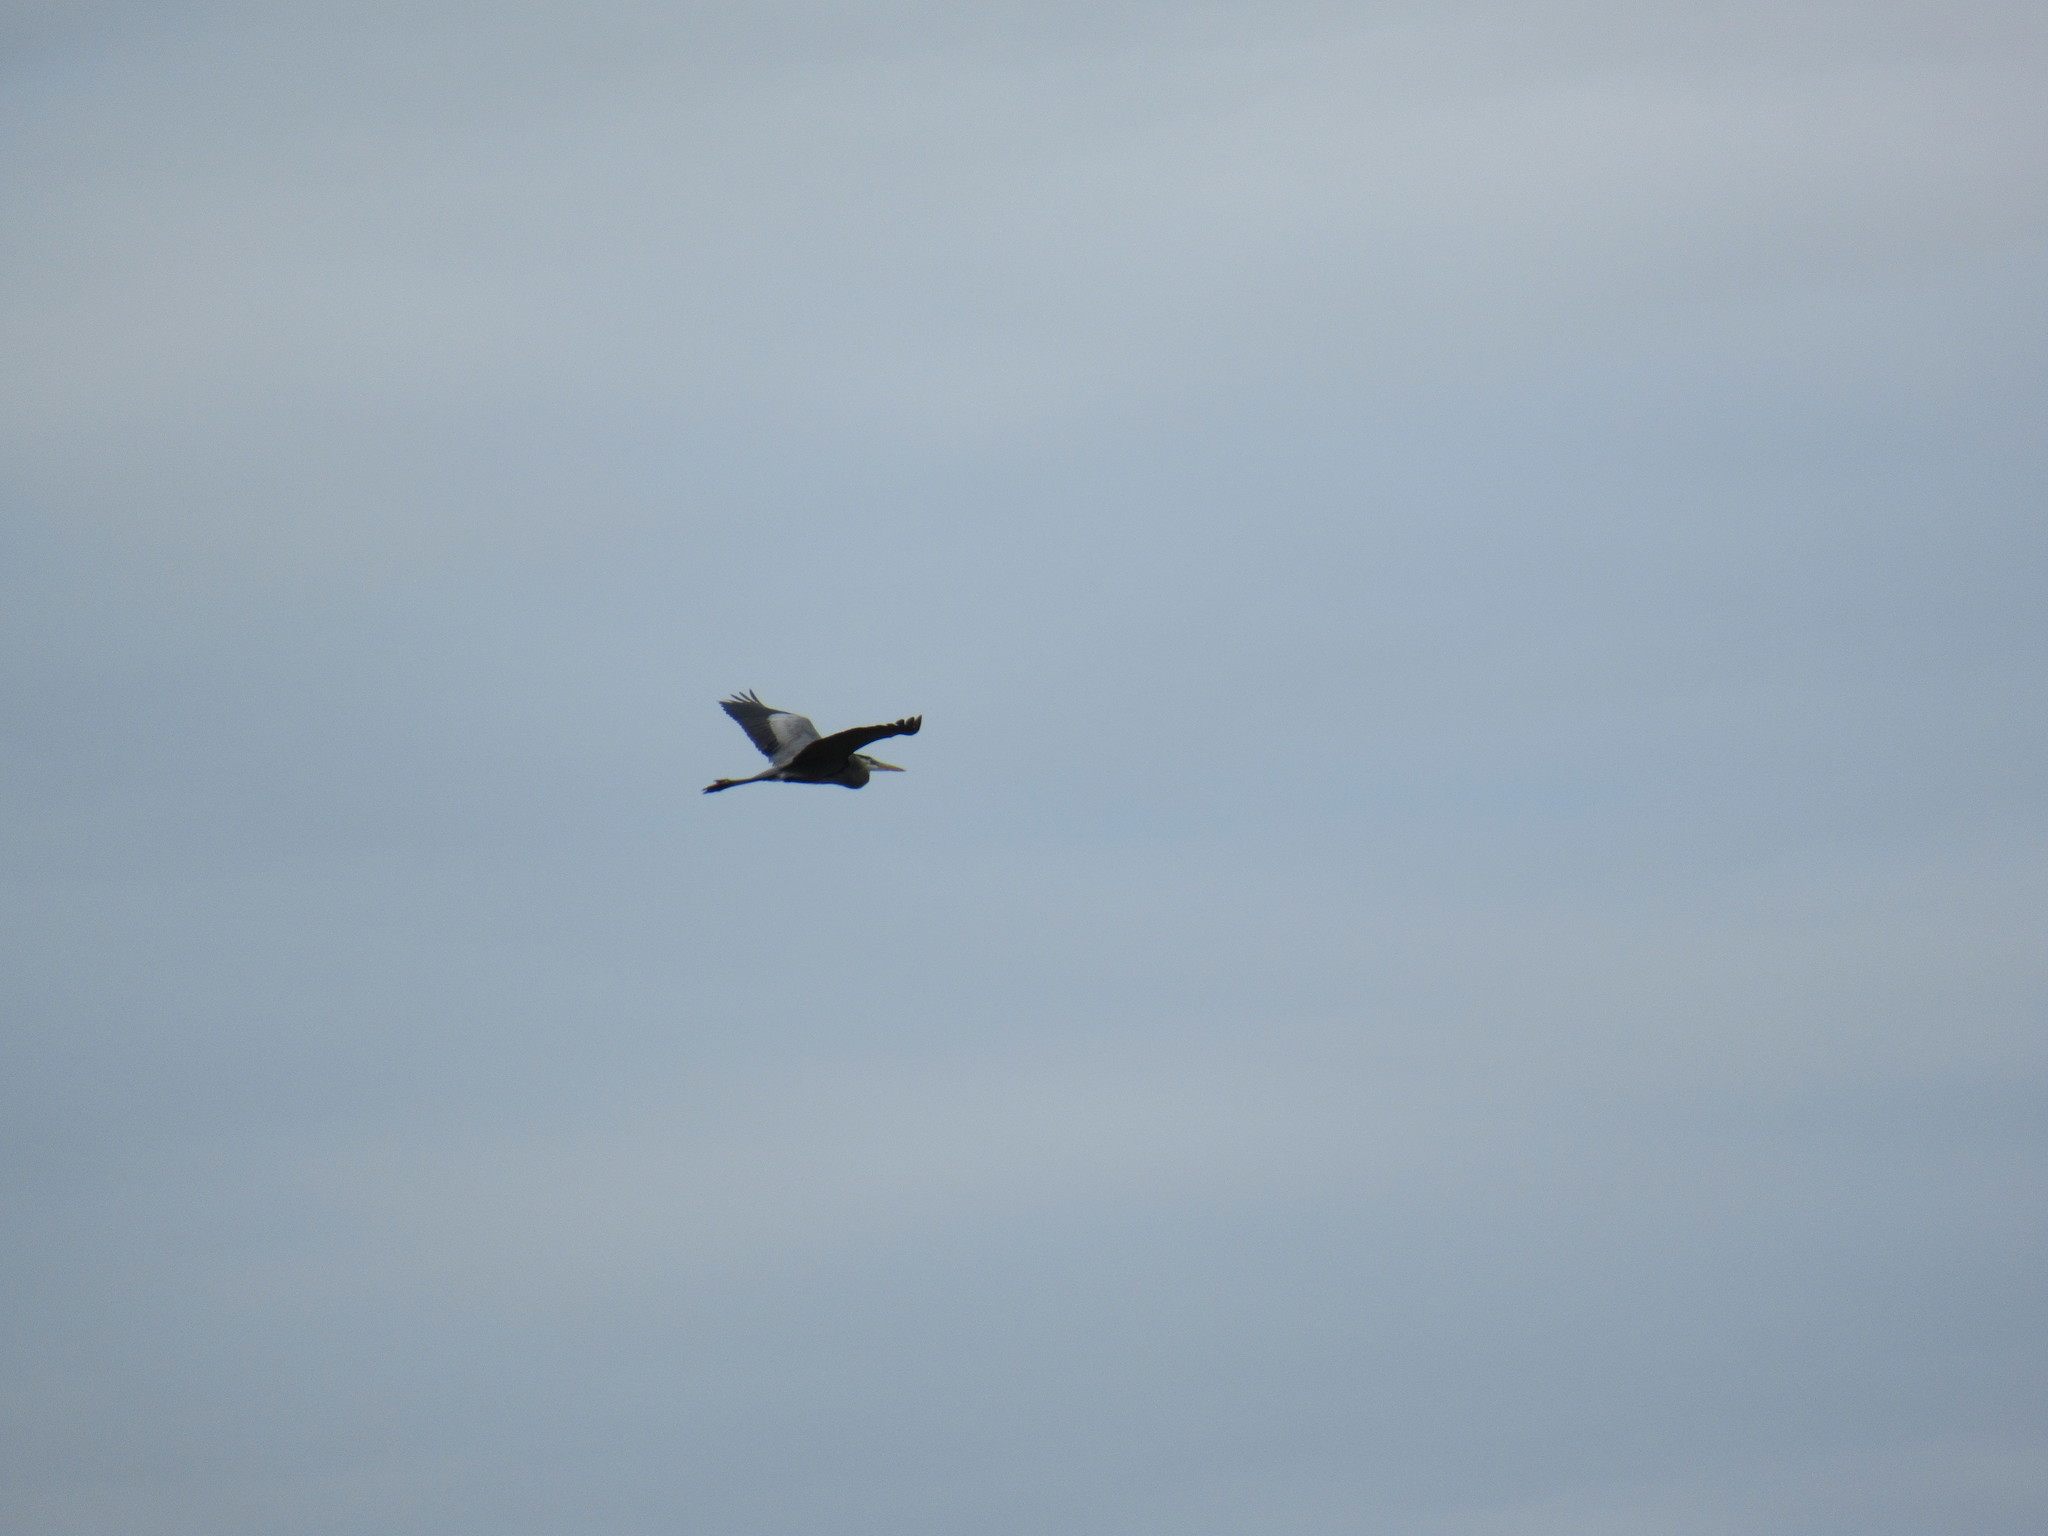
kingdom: Animalia
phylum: Chordata
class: Aves
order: Pelecaniformes
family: Ardeidae
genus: Ardea
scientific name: Ardea herodias
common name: Great blue heron
